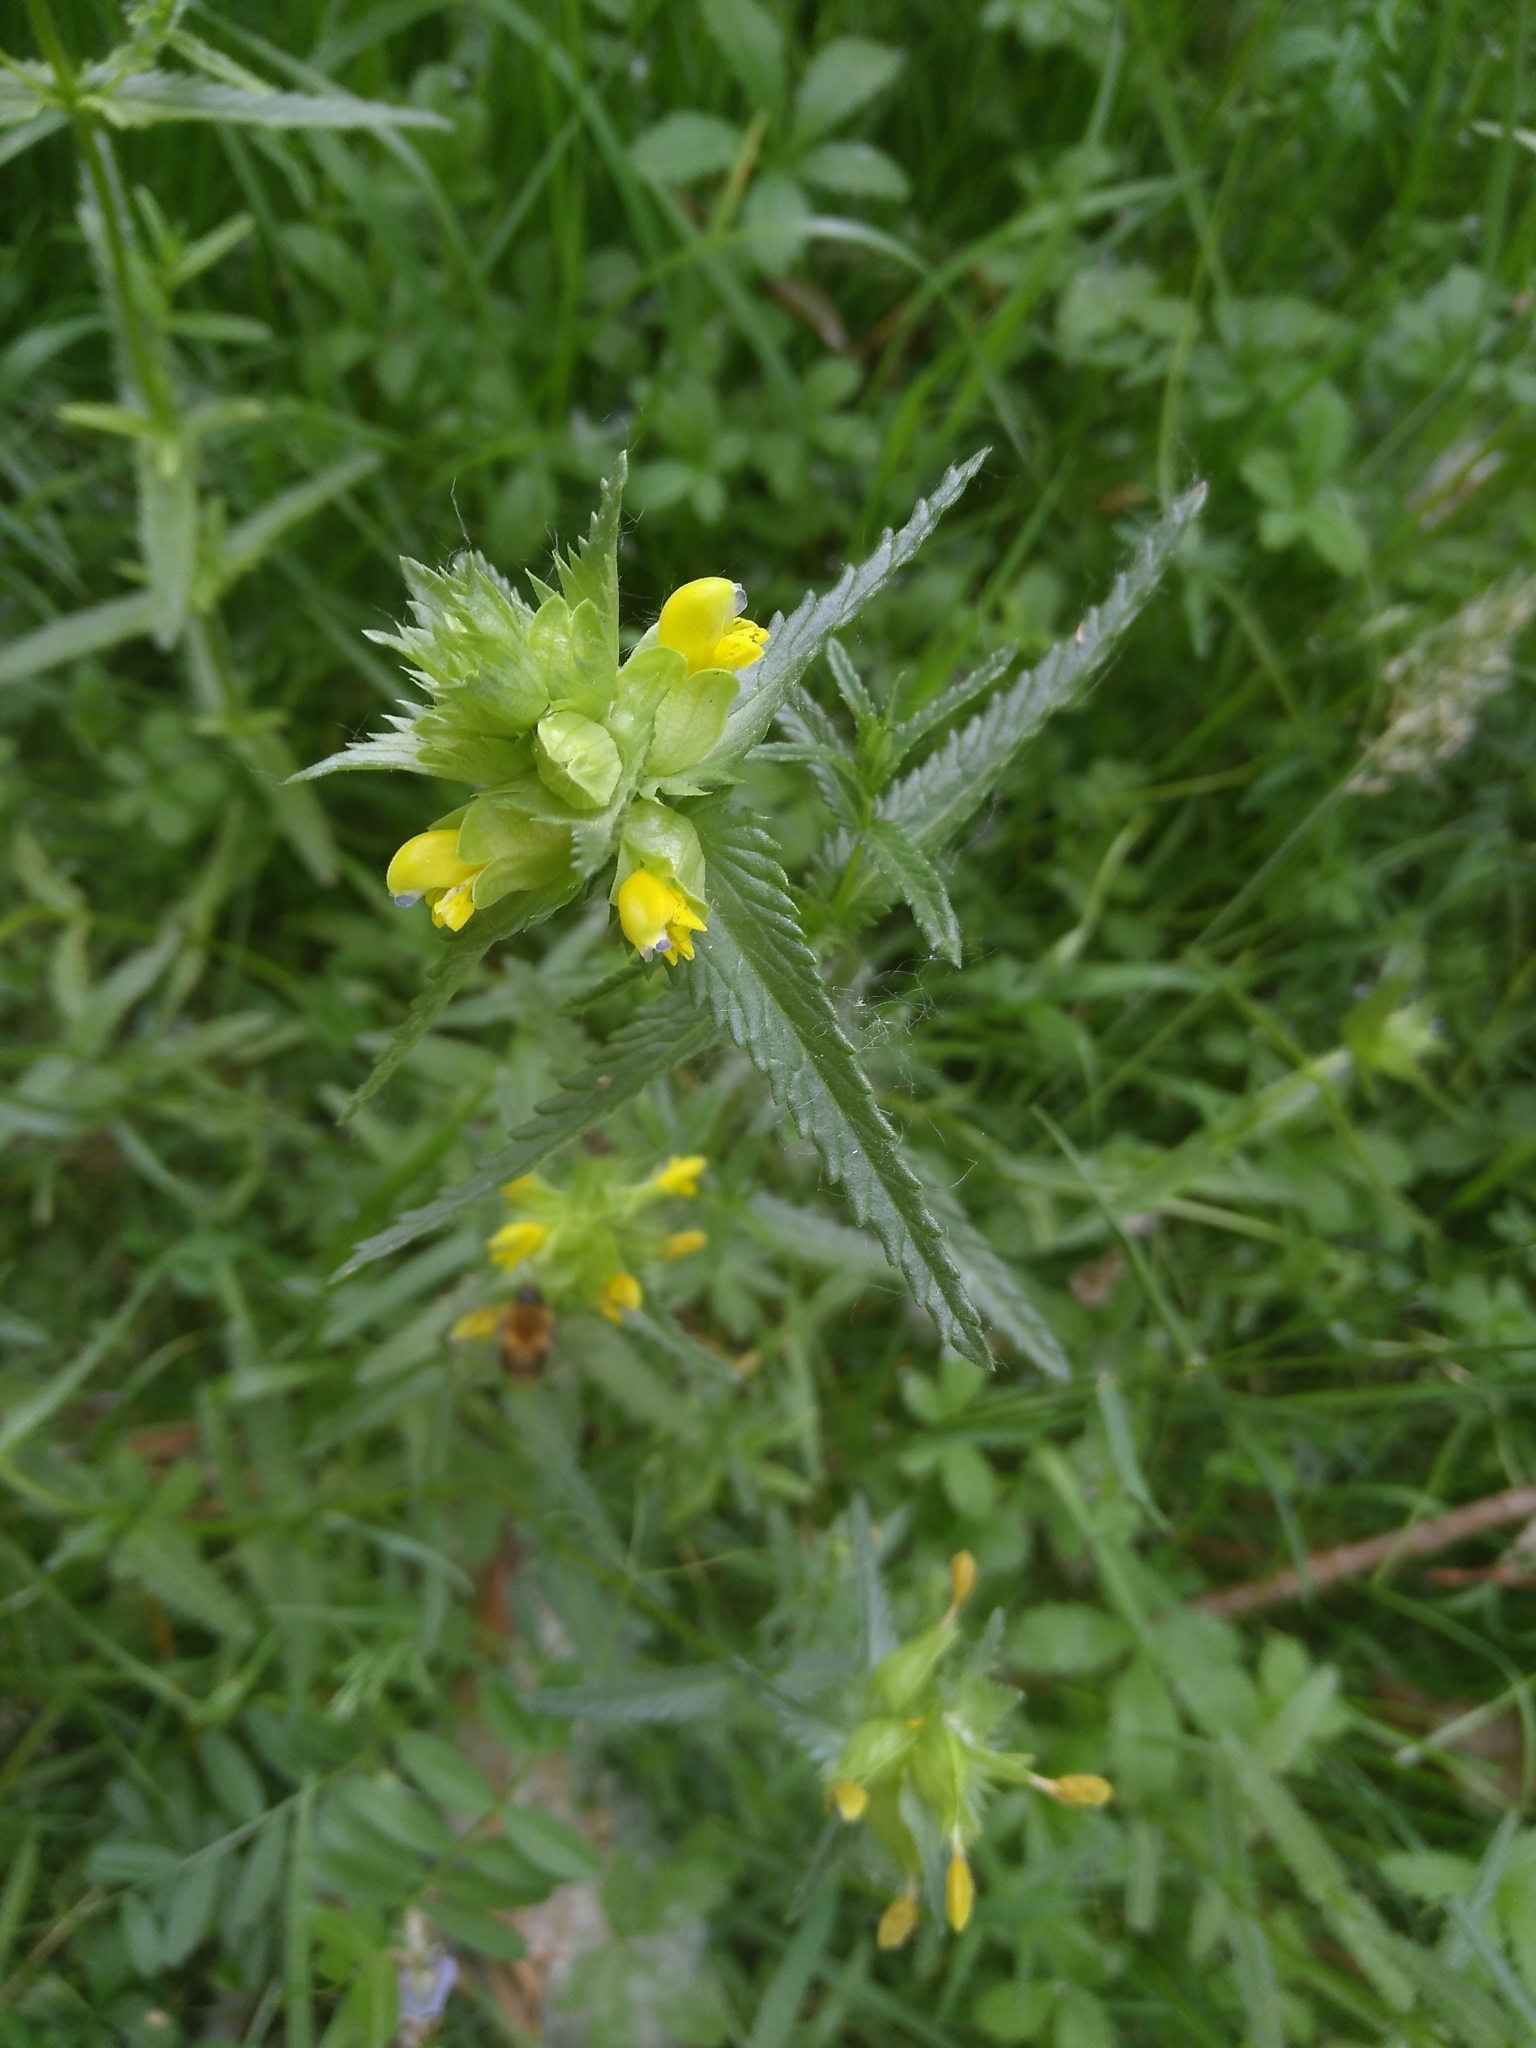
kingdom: Plantae
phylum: Tracheophyta
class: Magnoliopsida
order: Lamiales
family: Orobanchaceae
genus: Rhinanthus
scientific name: Rhinanthus minor
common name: Yellow-rattle
